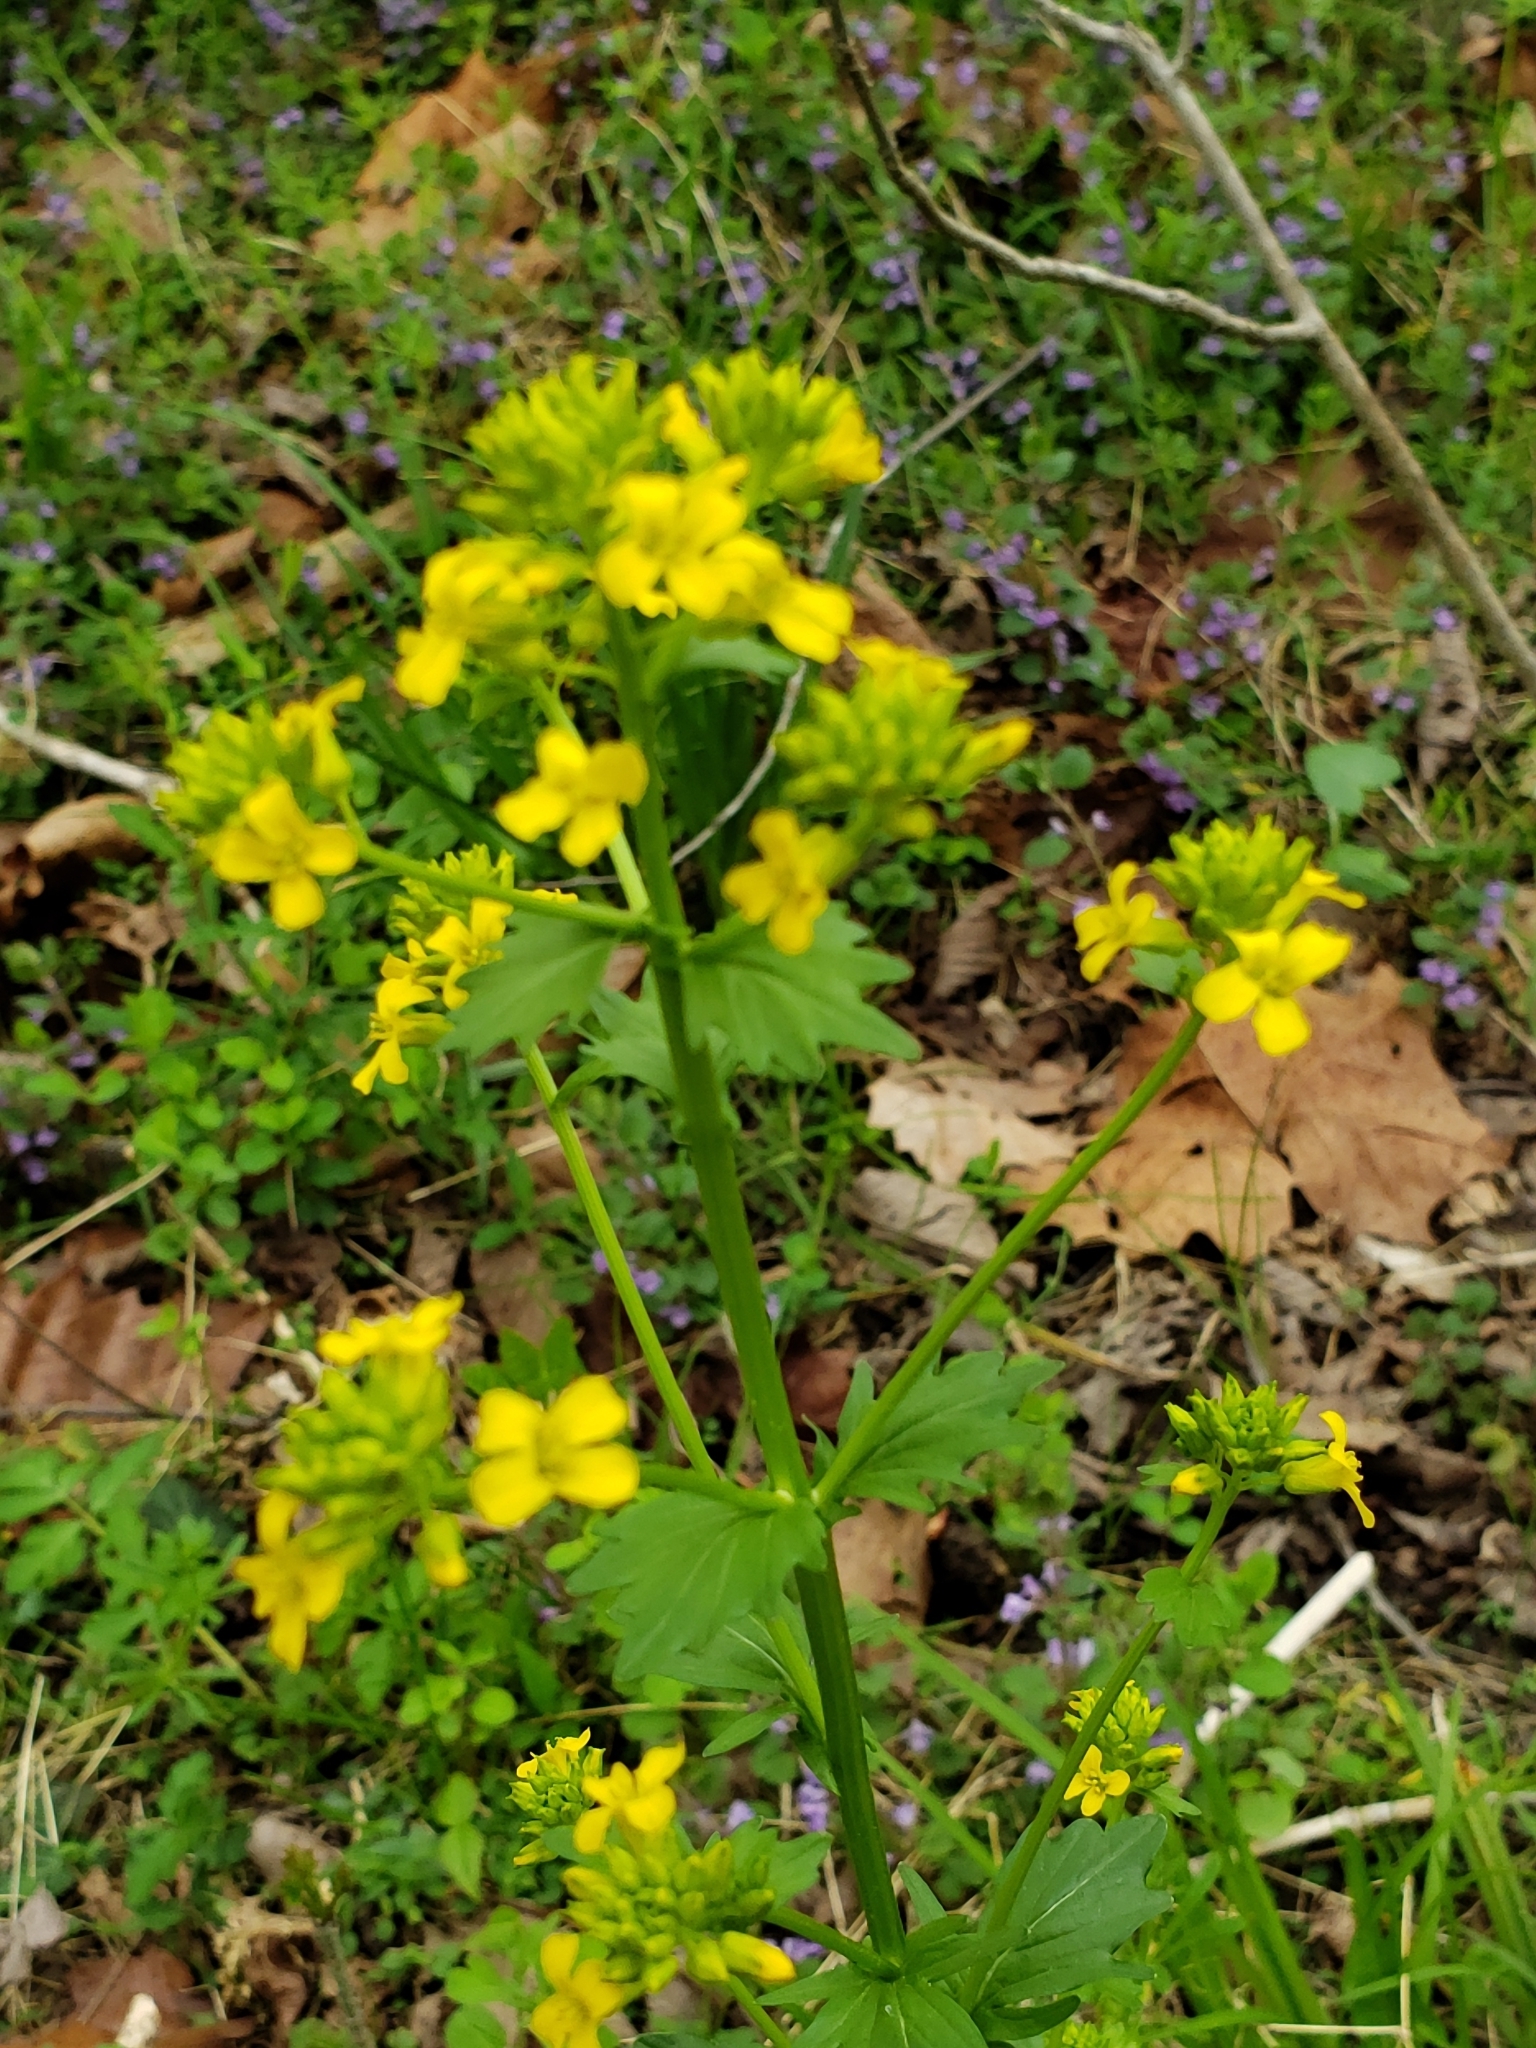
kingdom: Plantae
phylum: Tracheophyta
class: Magnoliopsida
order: Brassicales
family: Brassicaceae
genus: Barbarea
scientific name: Barbarea vulgaris
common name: Cressy-greens
